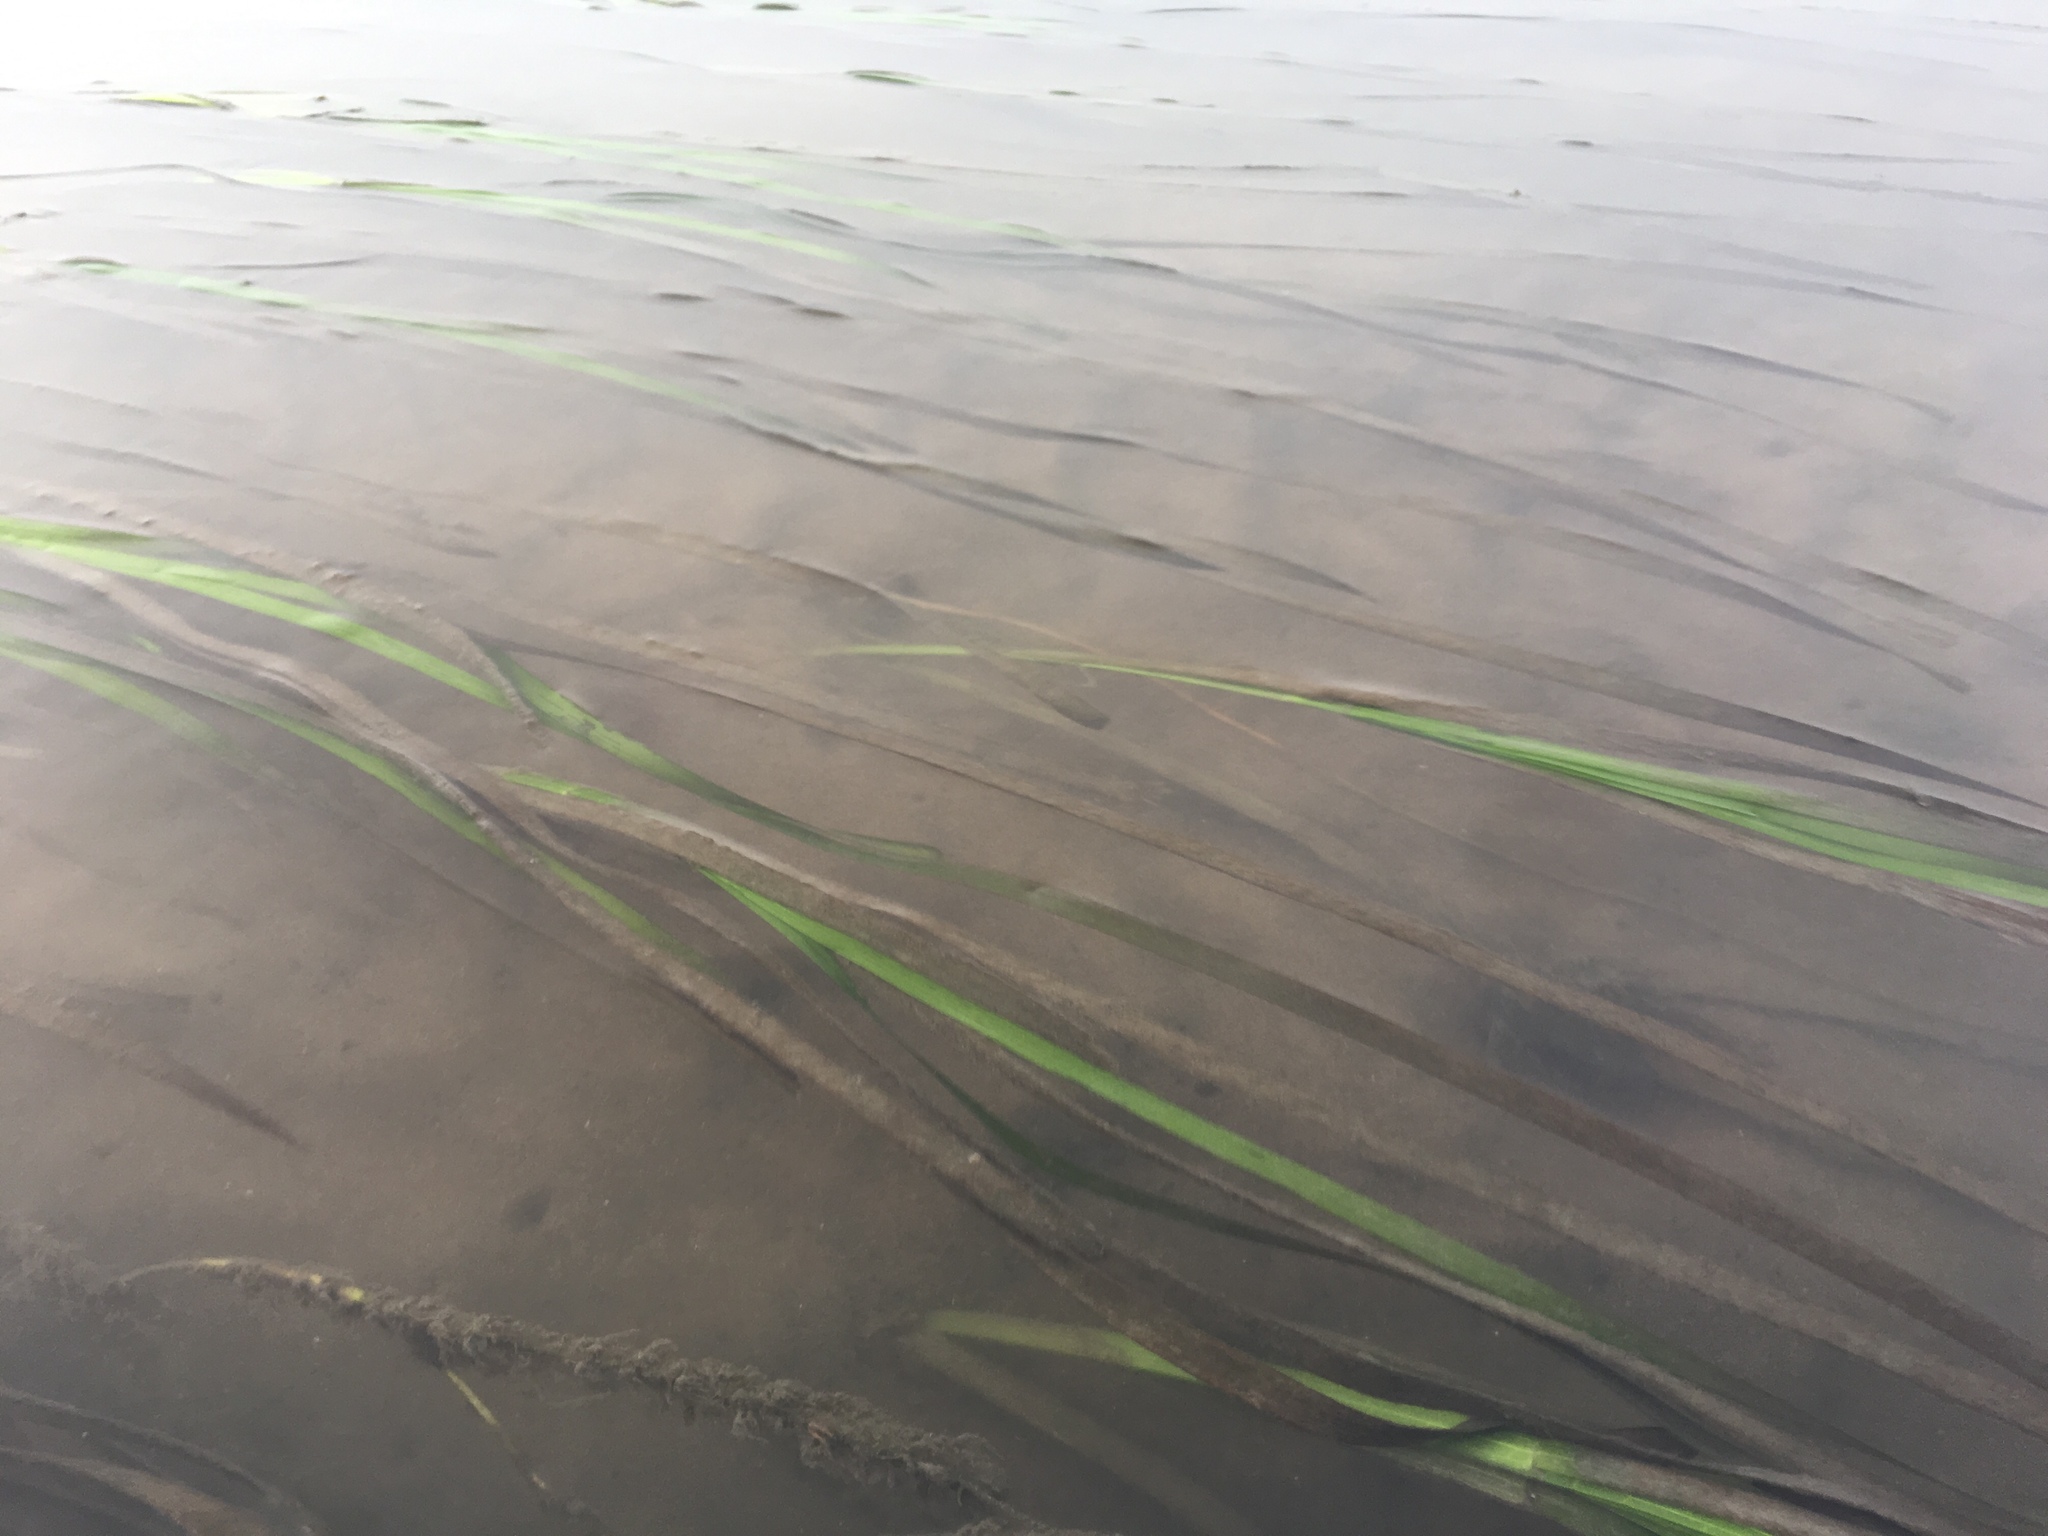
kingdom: Plantae
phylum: Tracheophyta
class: Liliopsida
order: Alismatales
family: Zosteraceae
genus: Zostera
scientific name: Zostera marina
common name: Eelgrass
